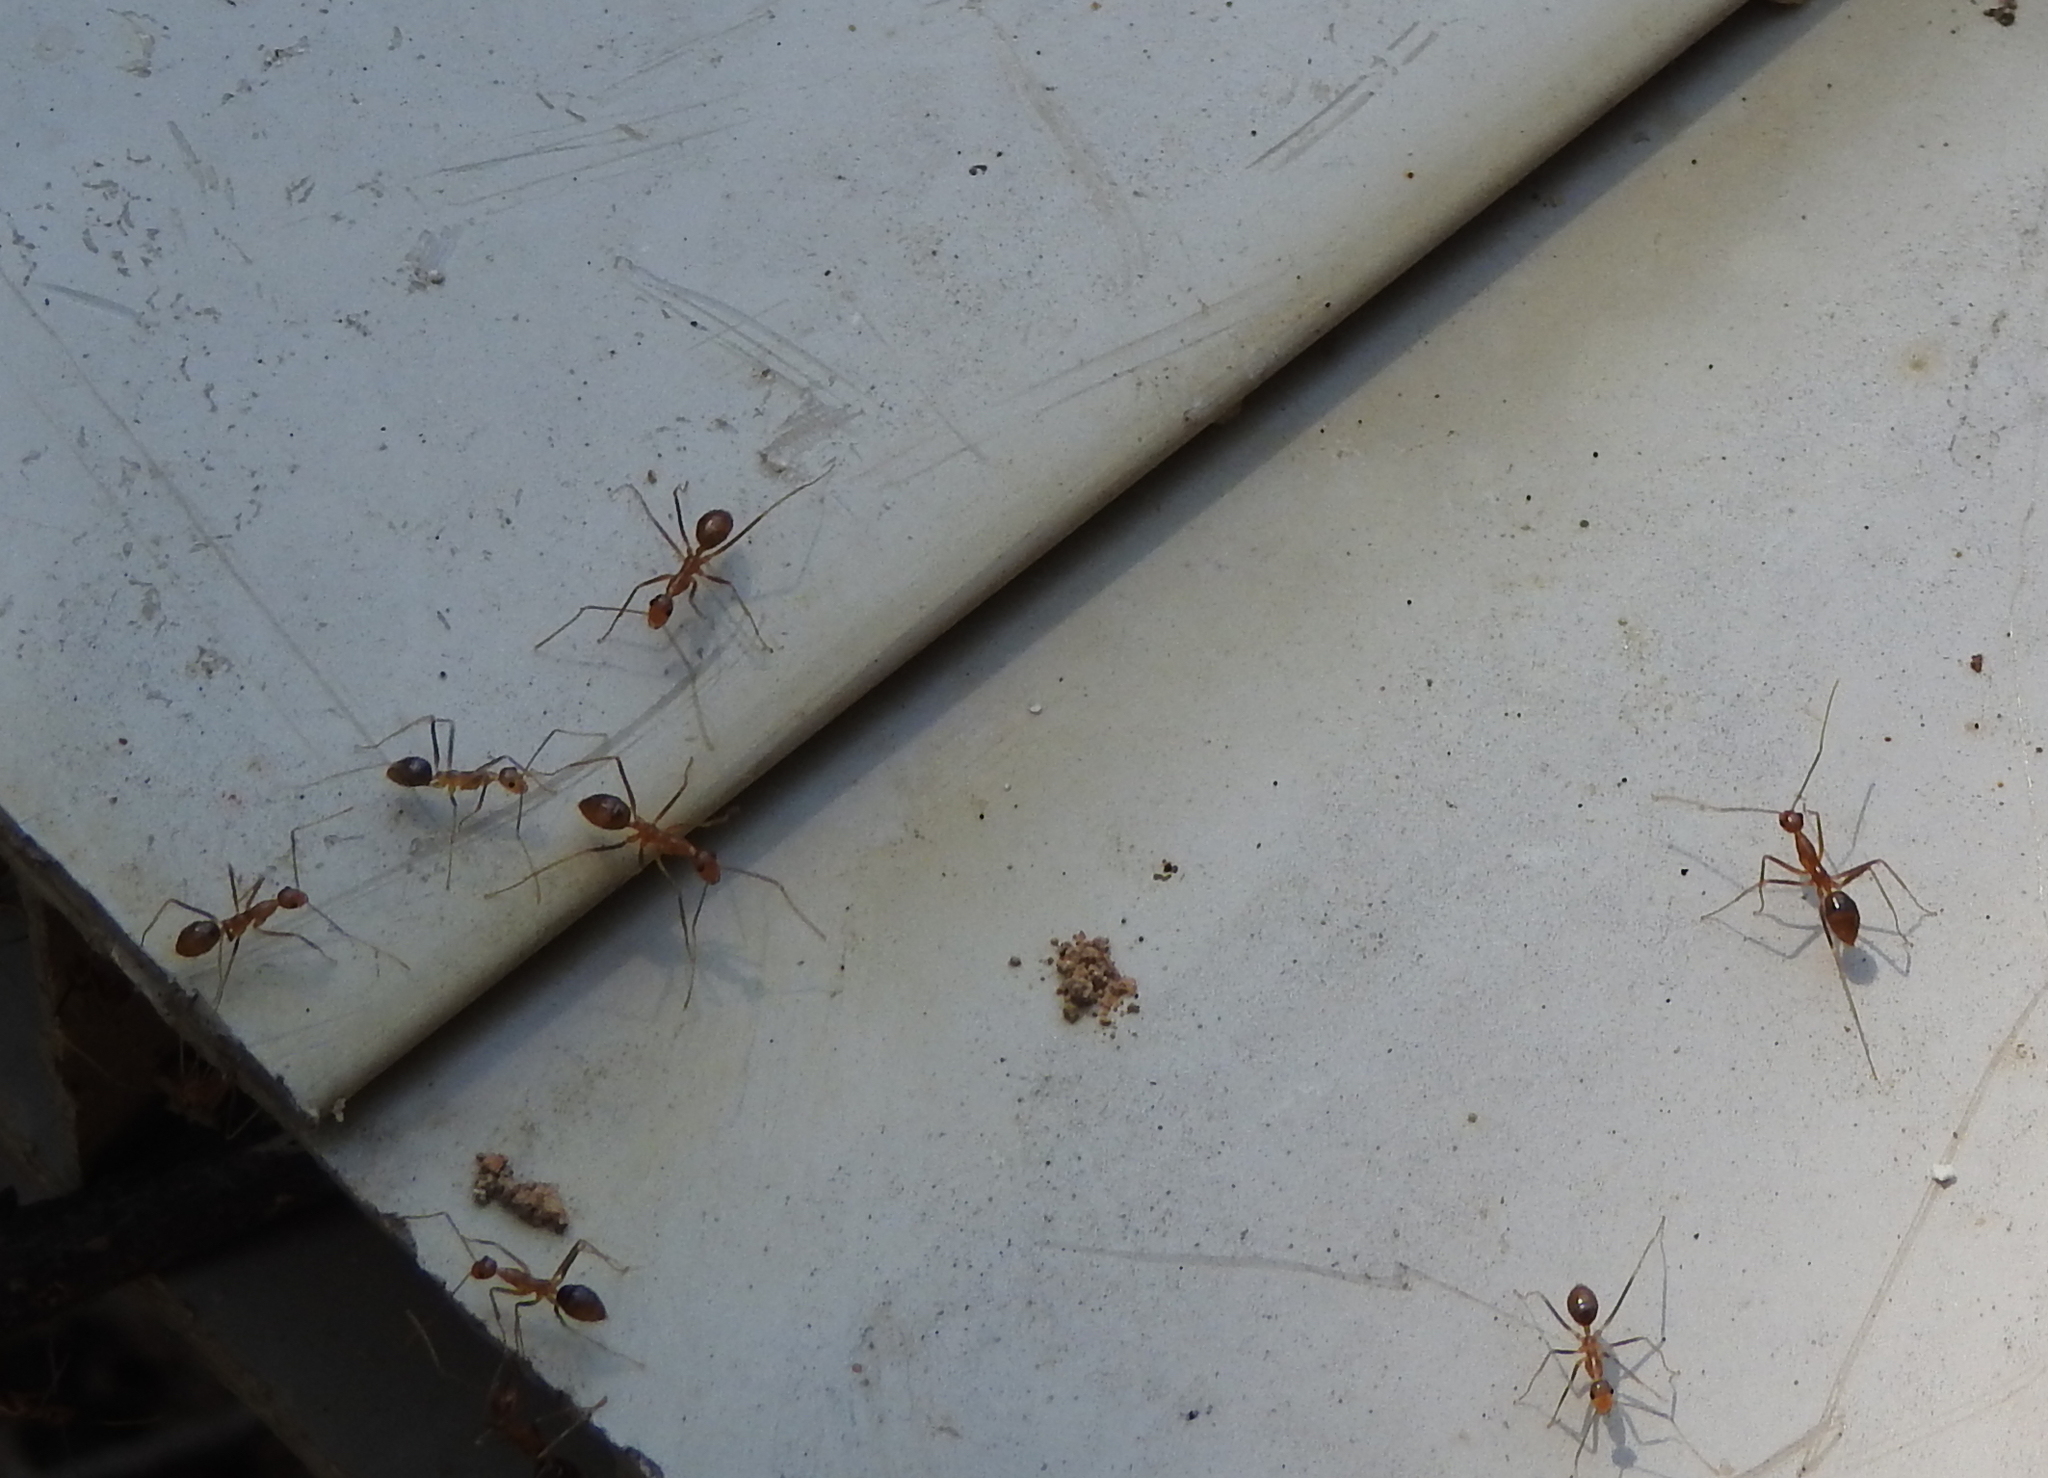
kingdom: Animalia
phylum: Arthropoda
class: Insecta
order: Hymenoptera
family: Formicidae
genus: Anoplolepis
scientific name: Anoplolepis gracilipes
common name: Ant
